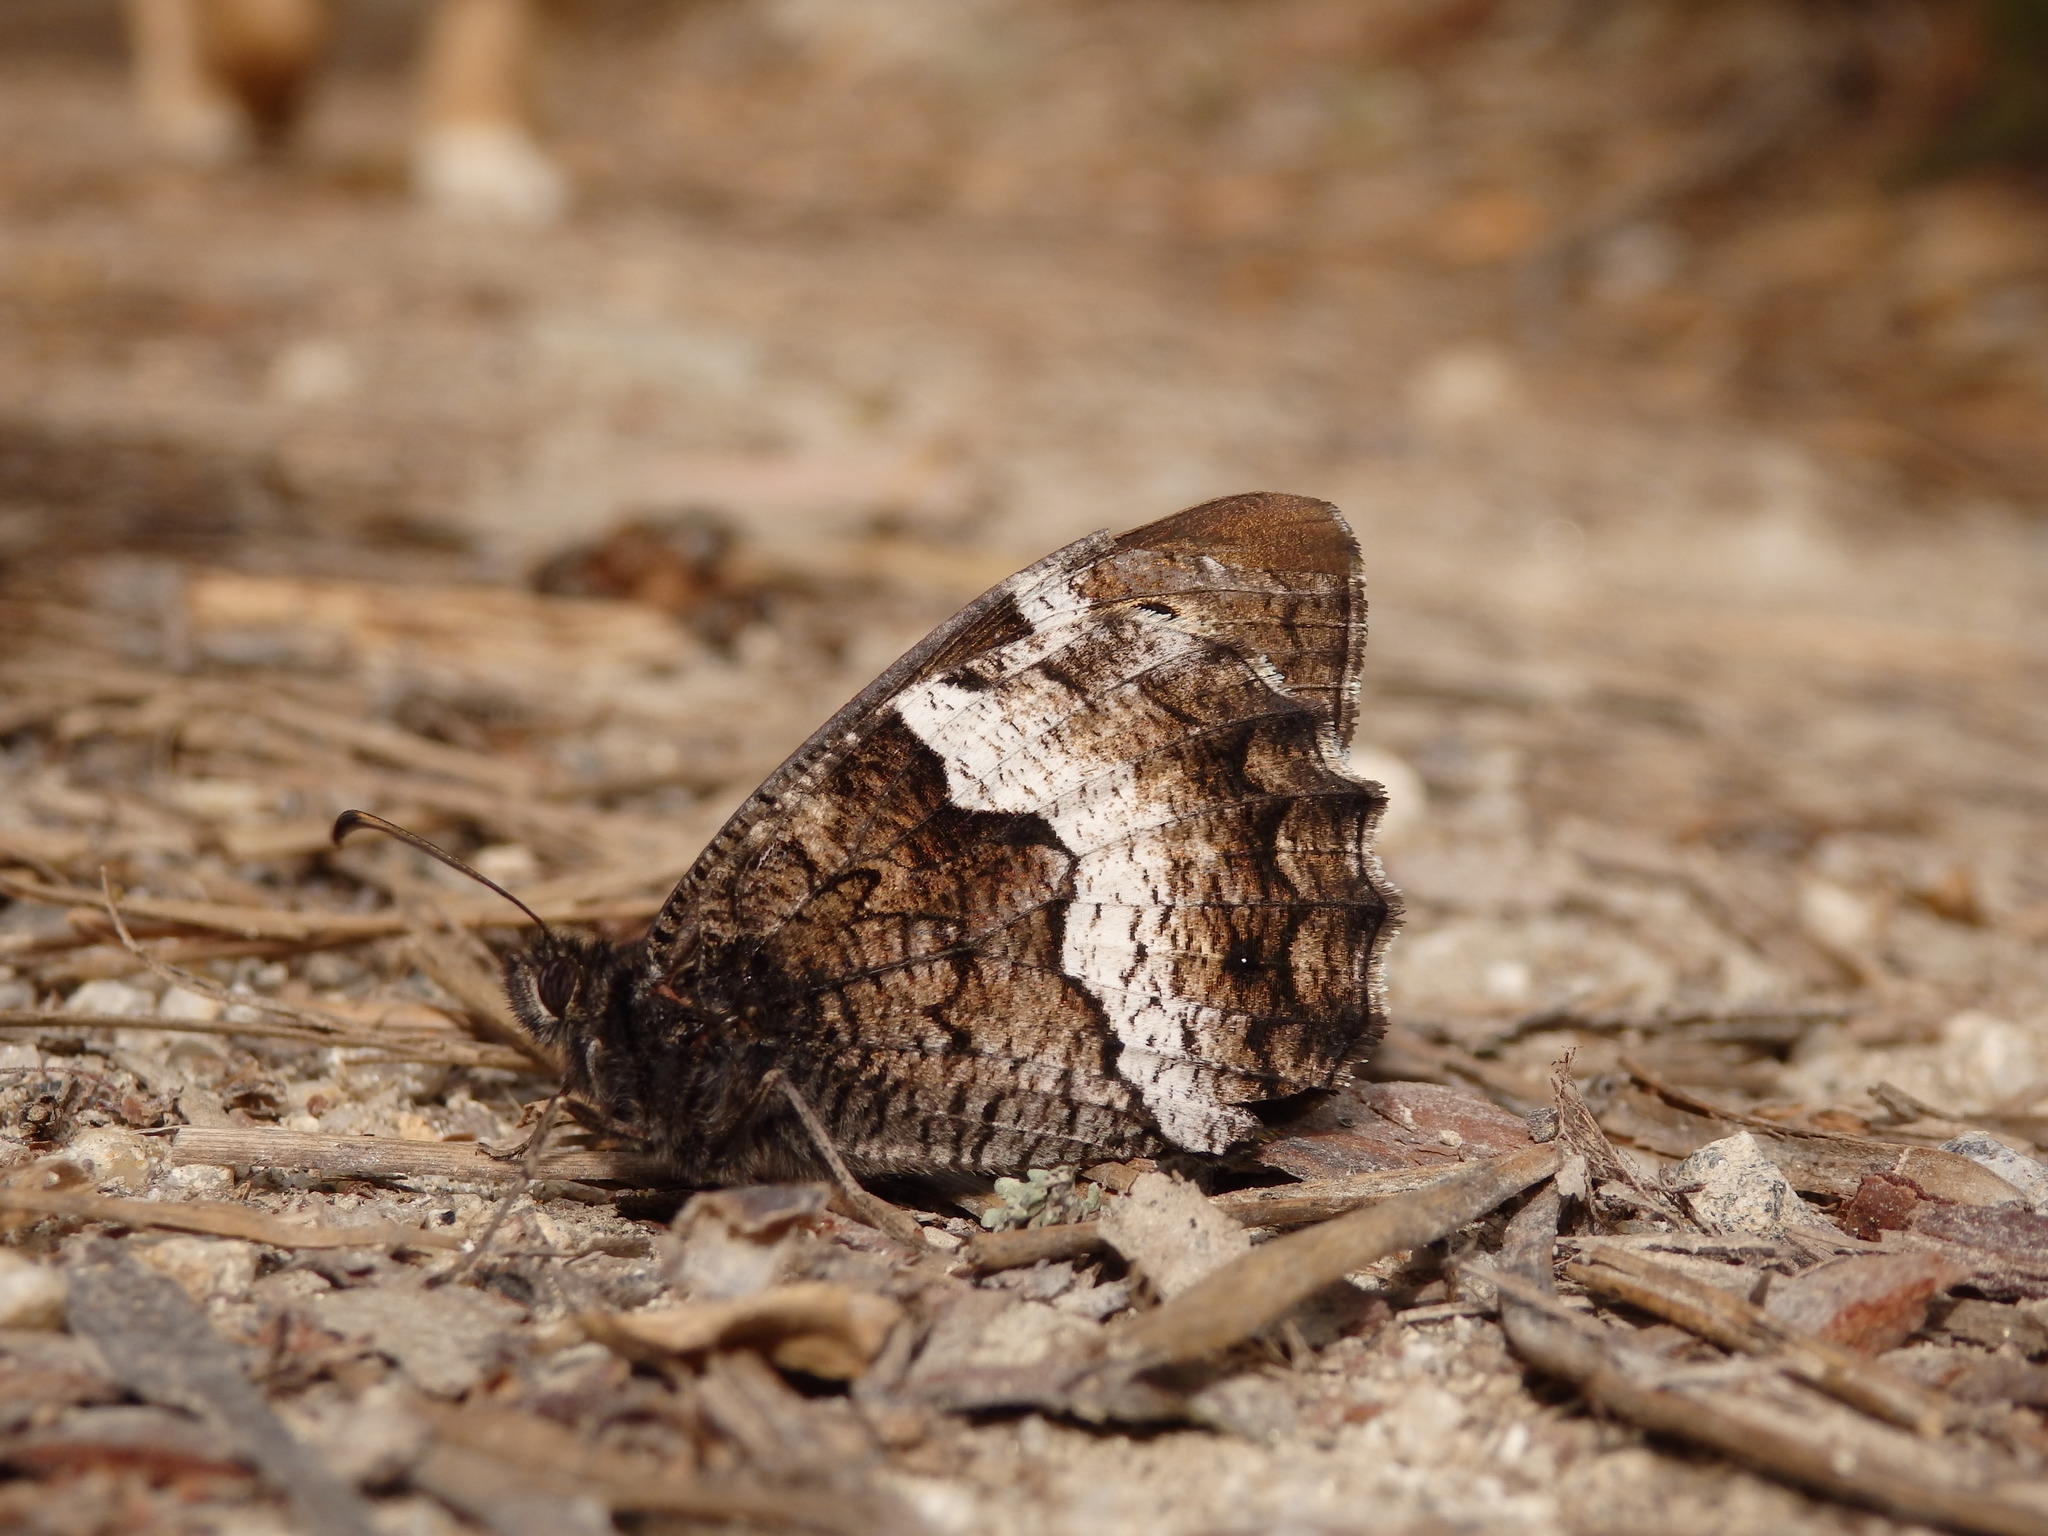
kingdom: Animalia
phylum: Arthropoda
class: Insecta
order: Lepidoptera
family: Nymphalidae
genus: Hipparchia
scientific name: Hipparchia hermione
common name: Rock grayling
